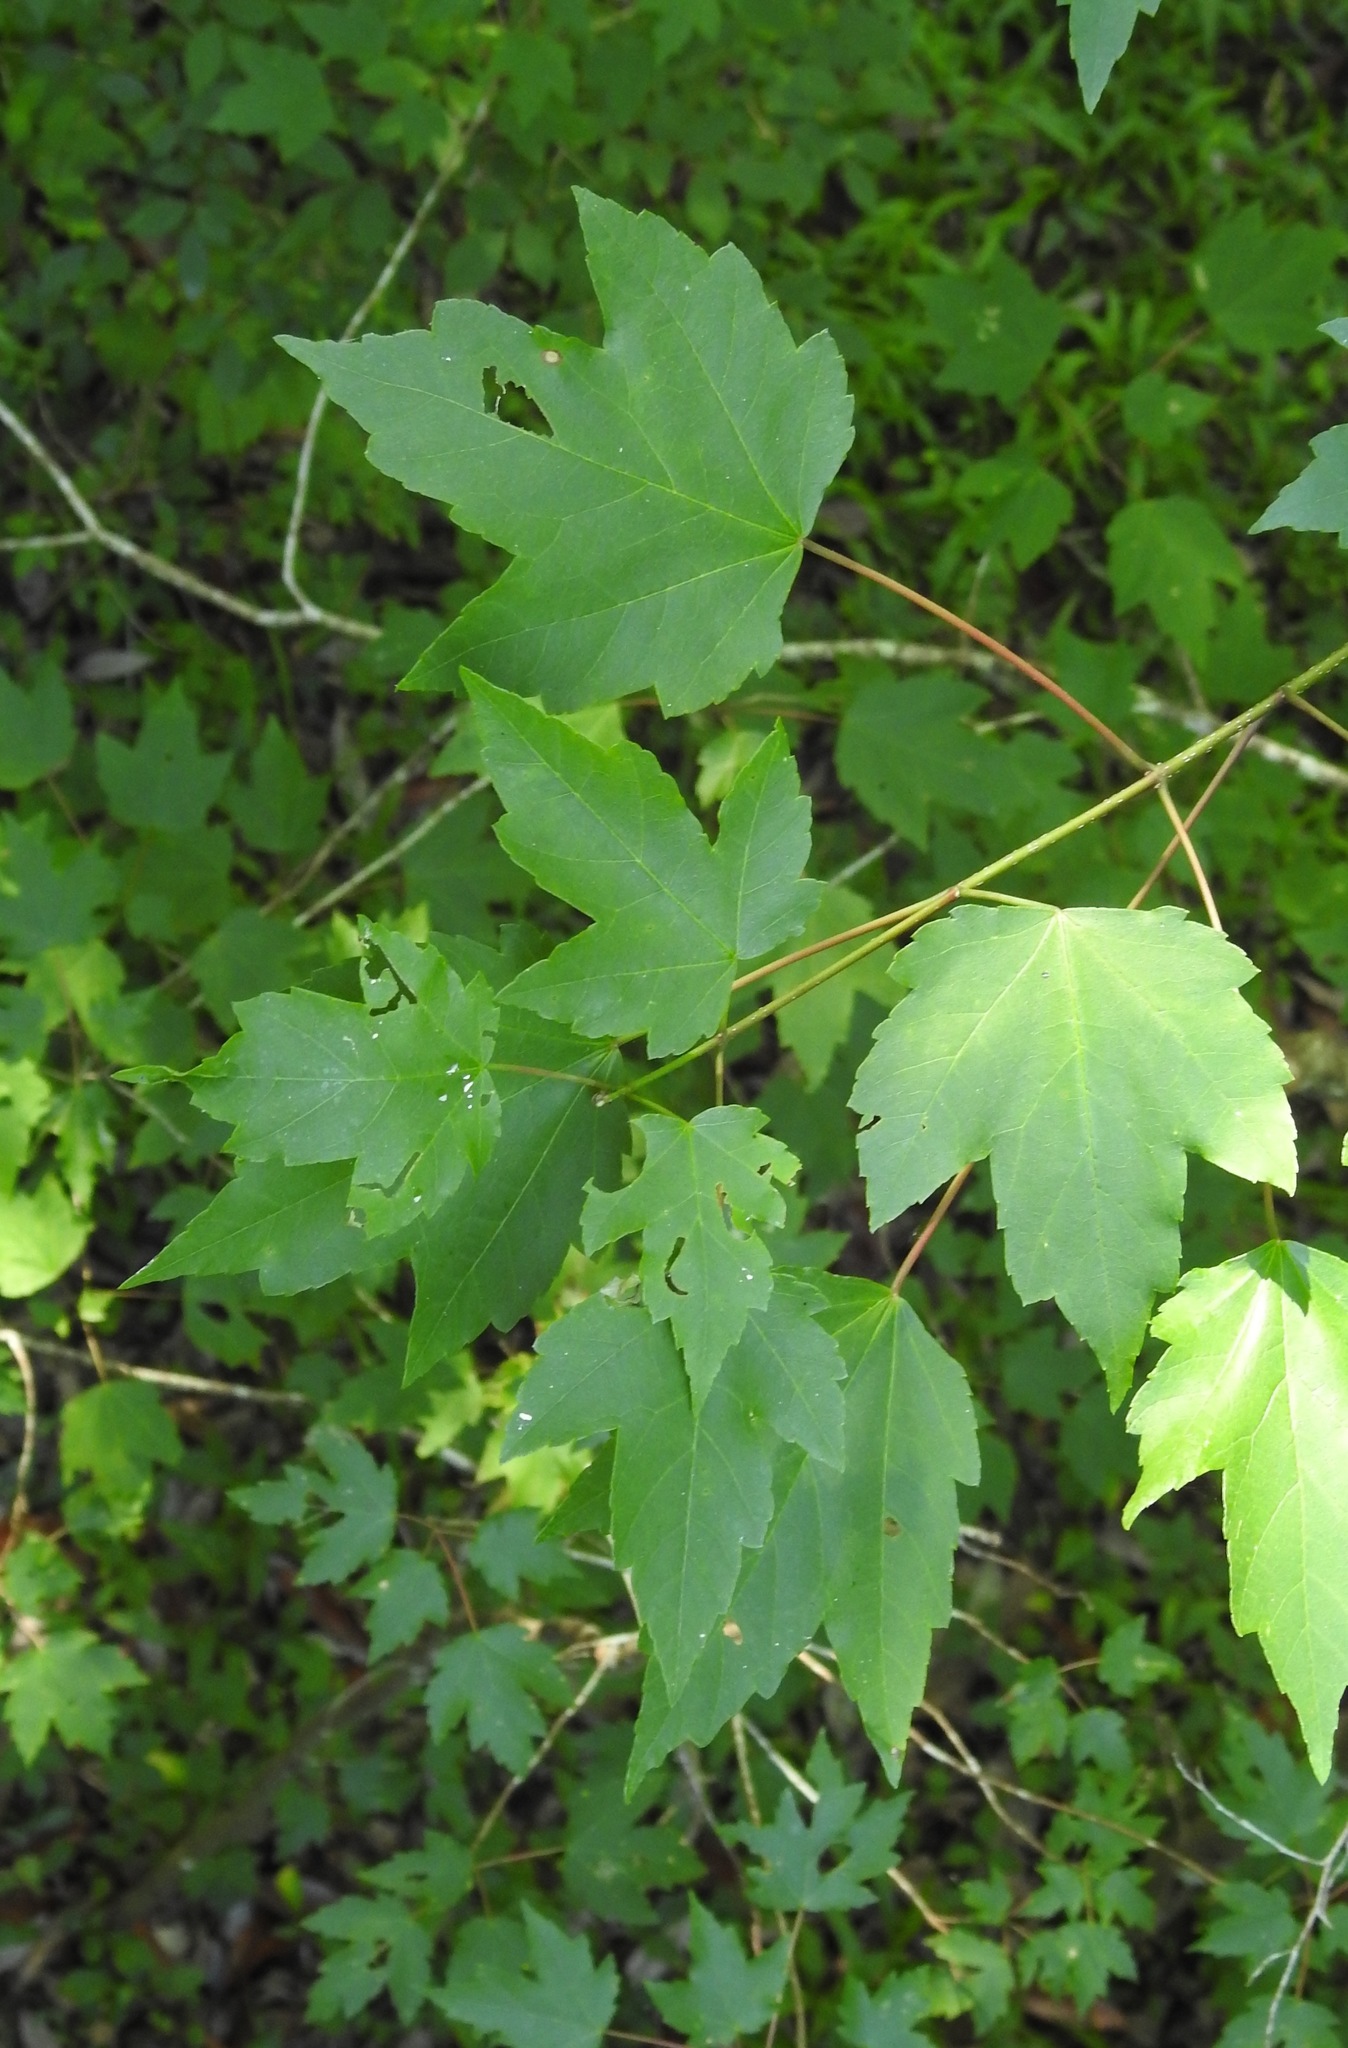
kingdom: Plantae
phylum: Tracheophyta
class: Magnoliopsida
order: Sapindales
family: Sapindaceae
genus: Acer
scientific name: Acer rubrum
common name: Red maple
